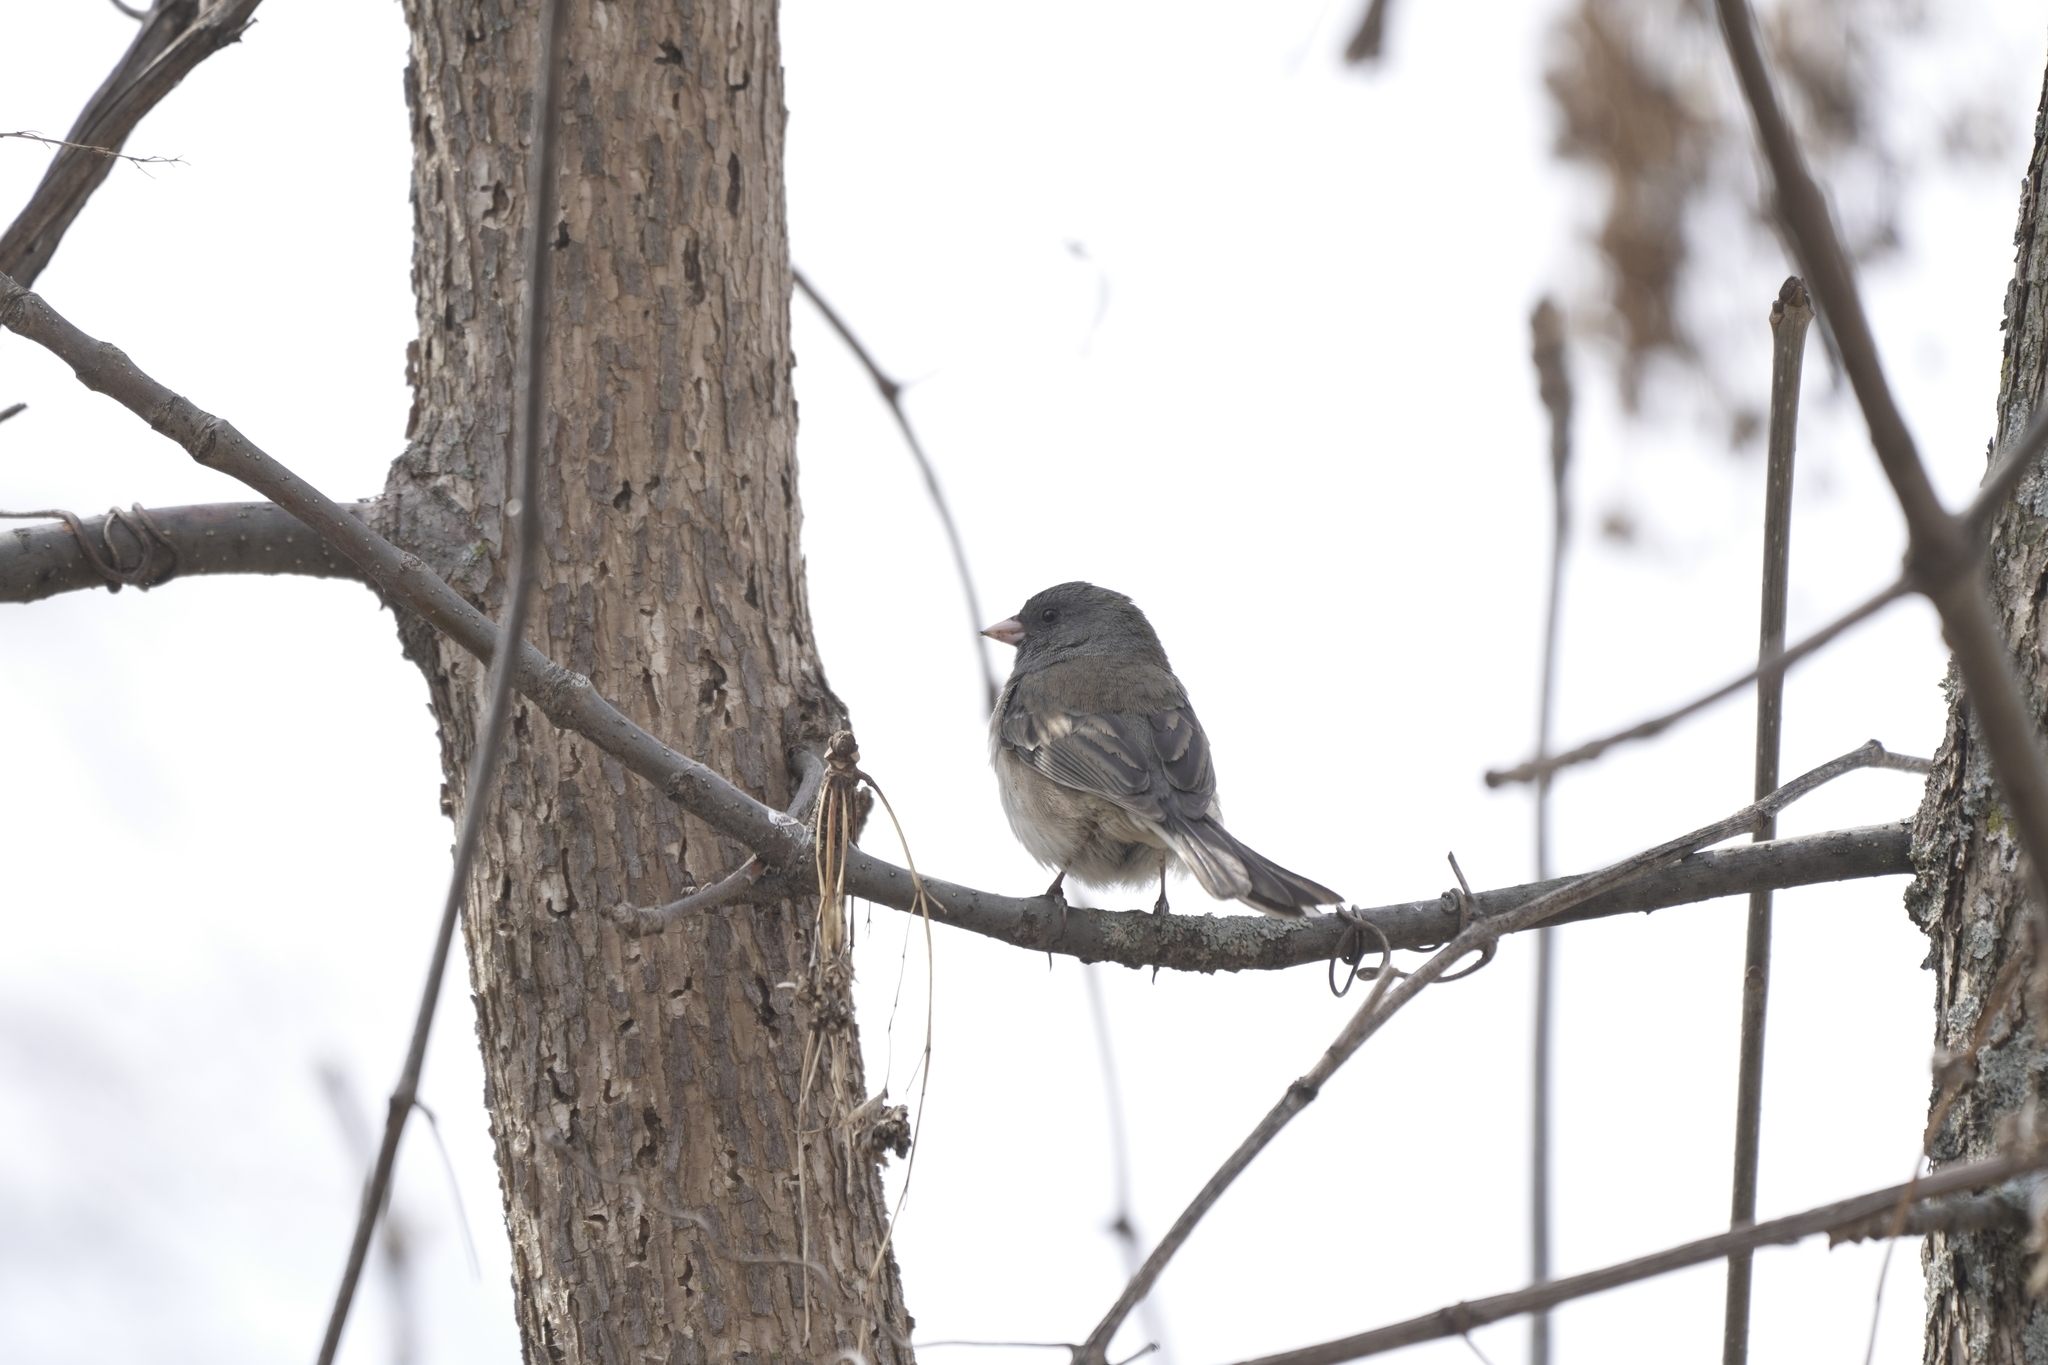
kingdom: Animalia
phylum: Chordata
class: Aves
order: Passeriformes
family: Passerellidae
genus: Junco
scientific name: Junco hyemalis
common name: Dark-eyed junco
